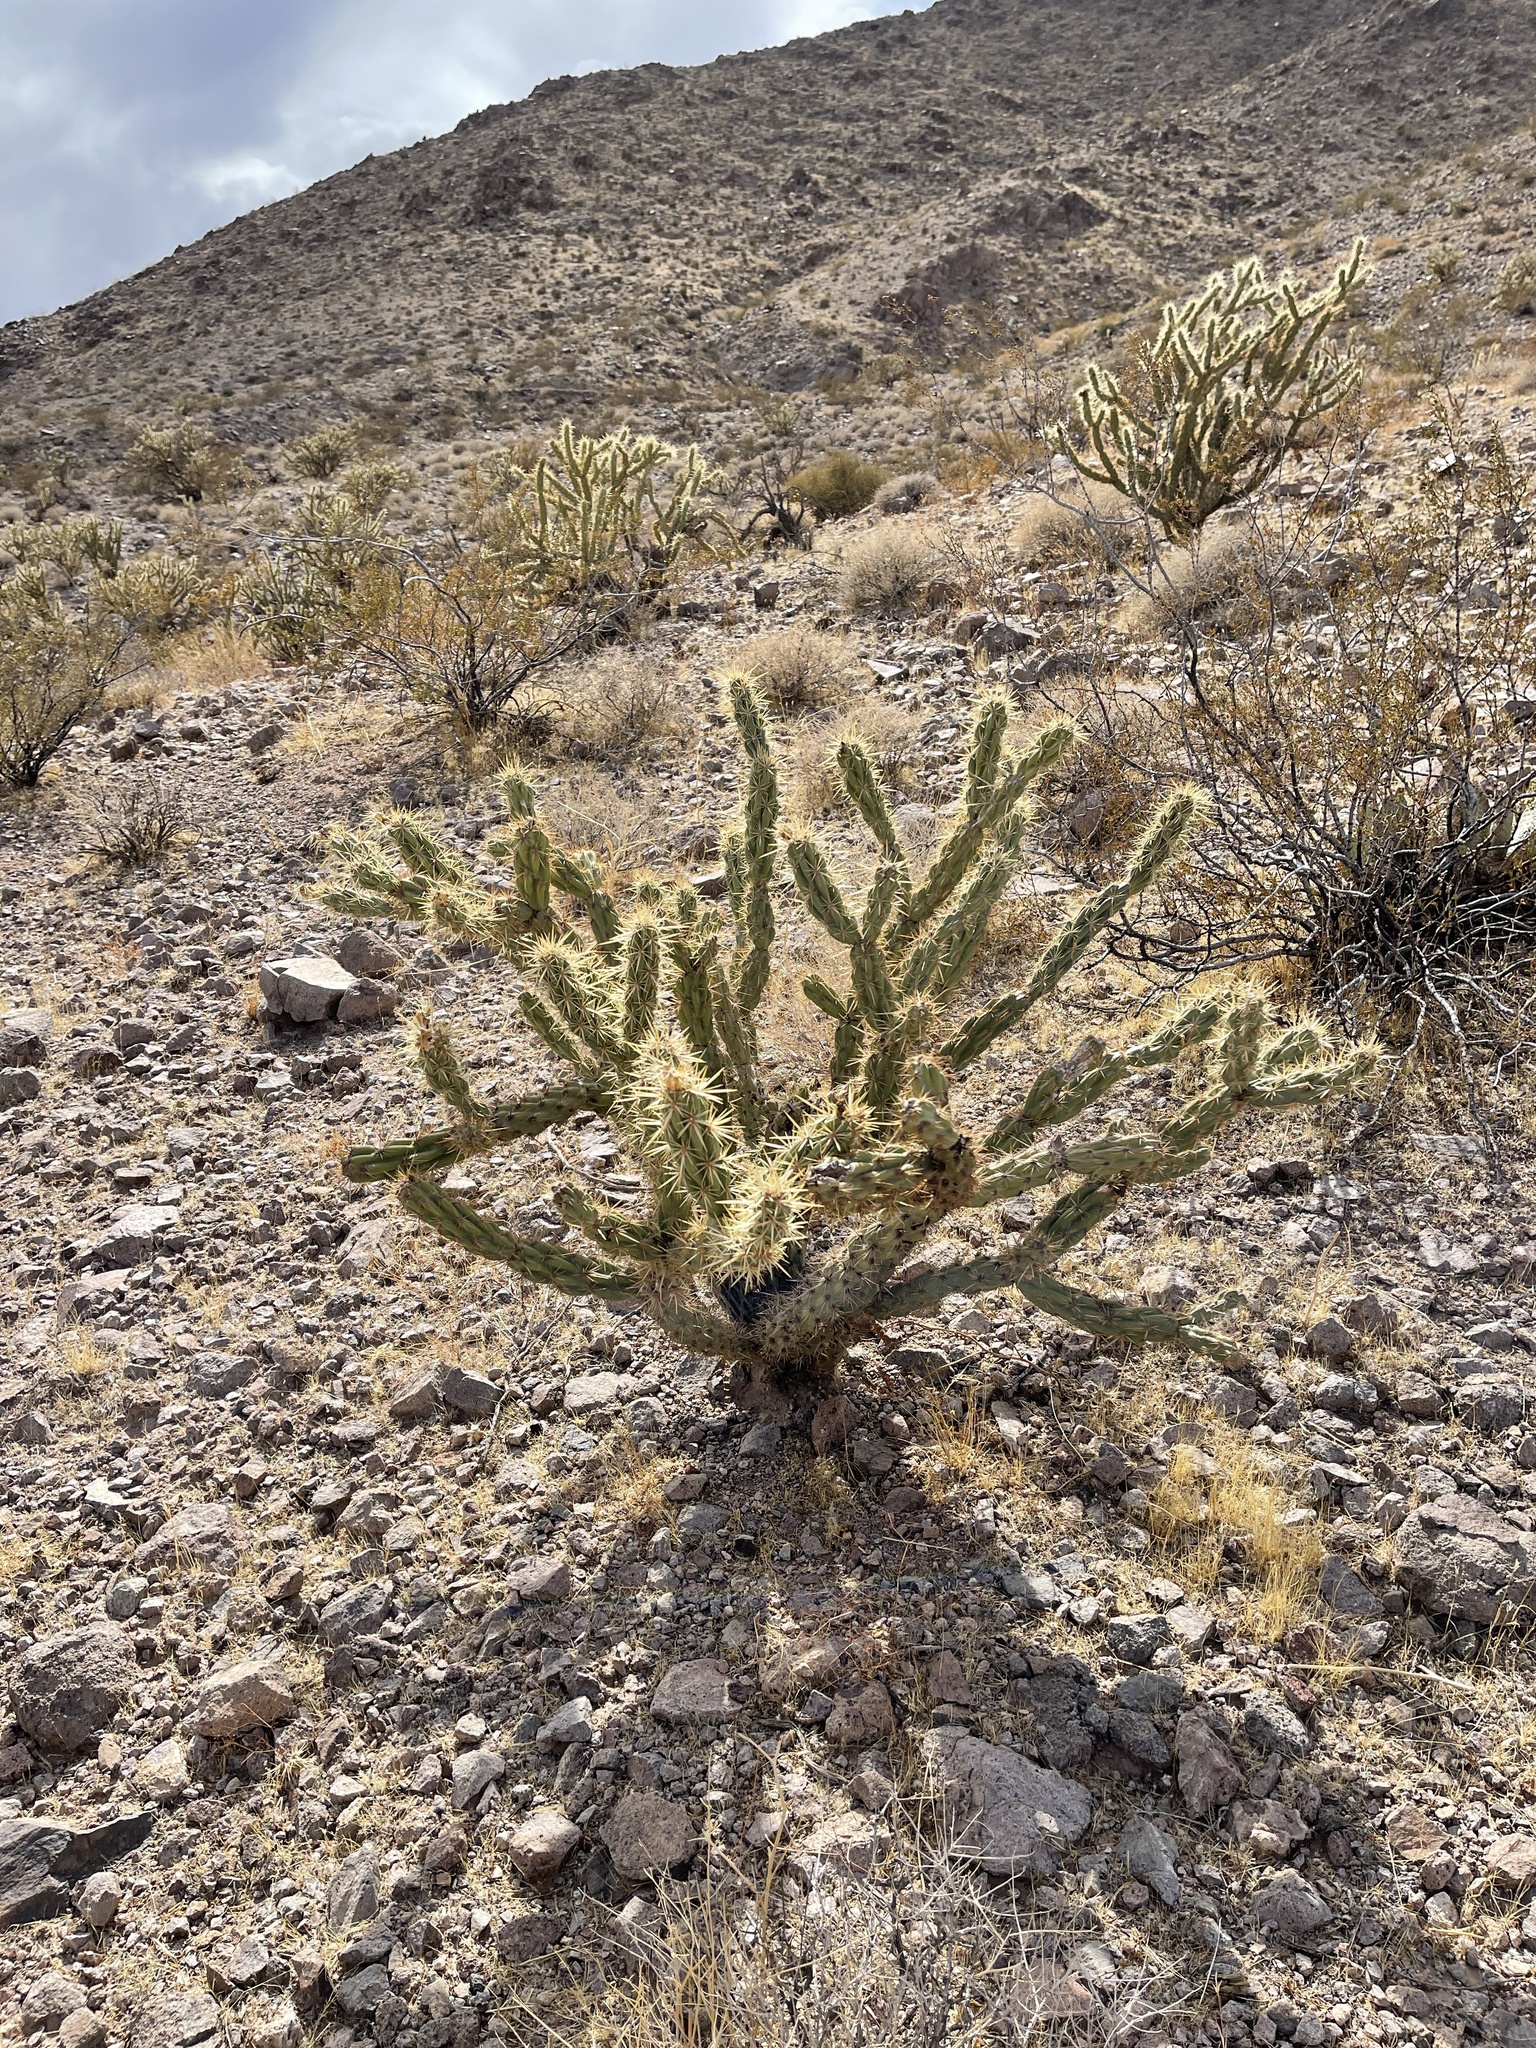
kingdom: Plantae
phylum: Tracheophyta
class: Magnoliopsida
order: Caryophyllales
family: Cactaceae
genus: Cylindropuntia
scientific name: Cylindropuntia acanthocarpa
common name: Buckhorn cholla
